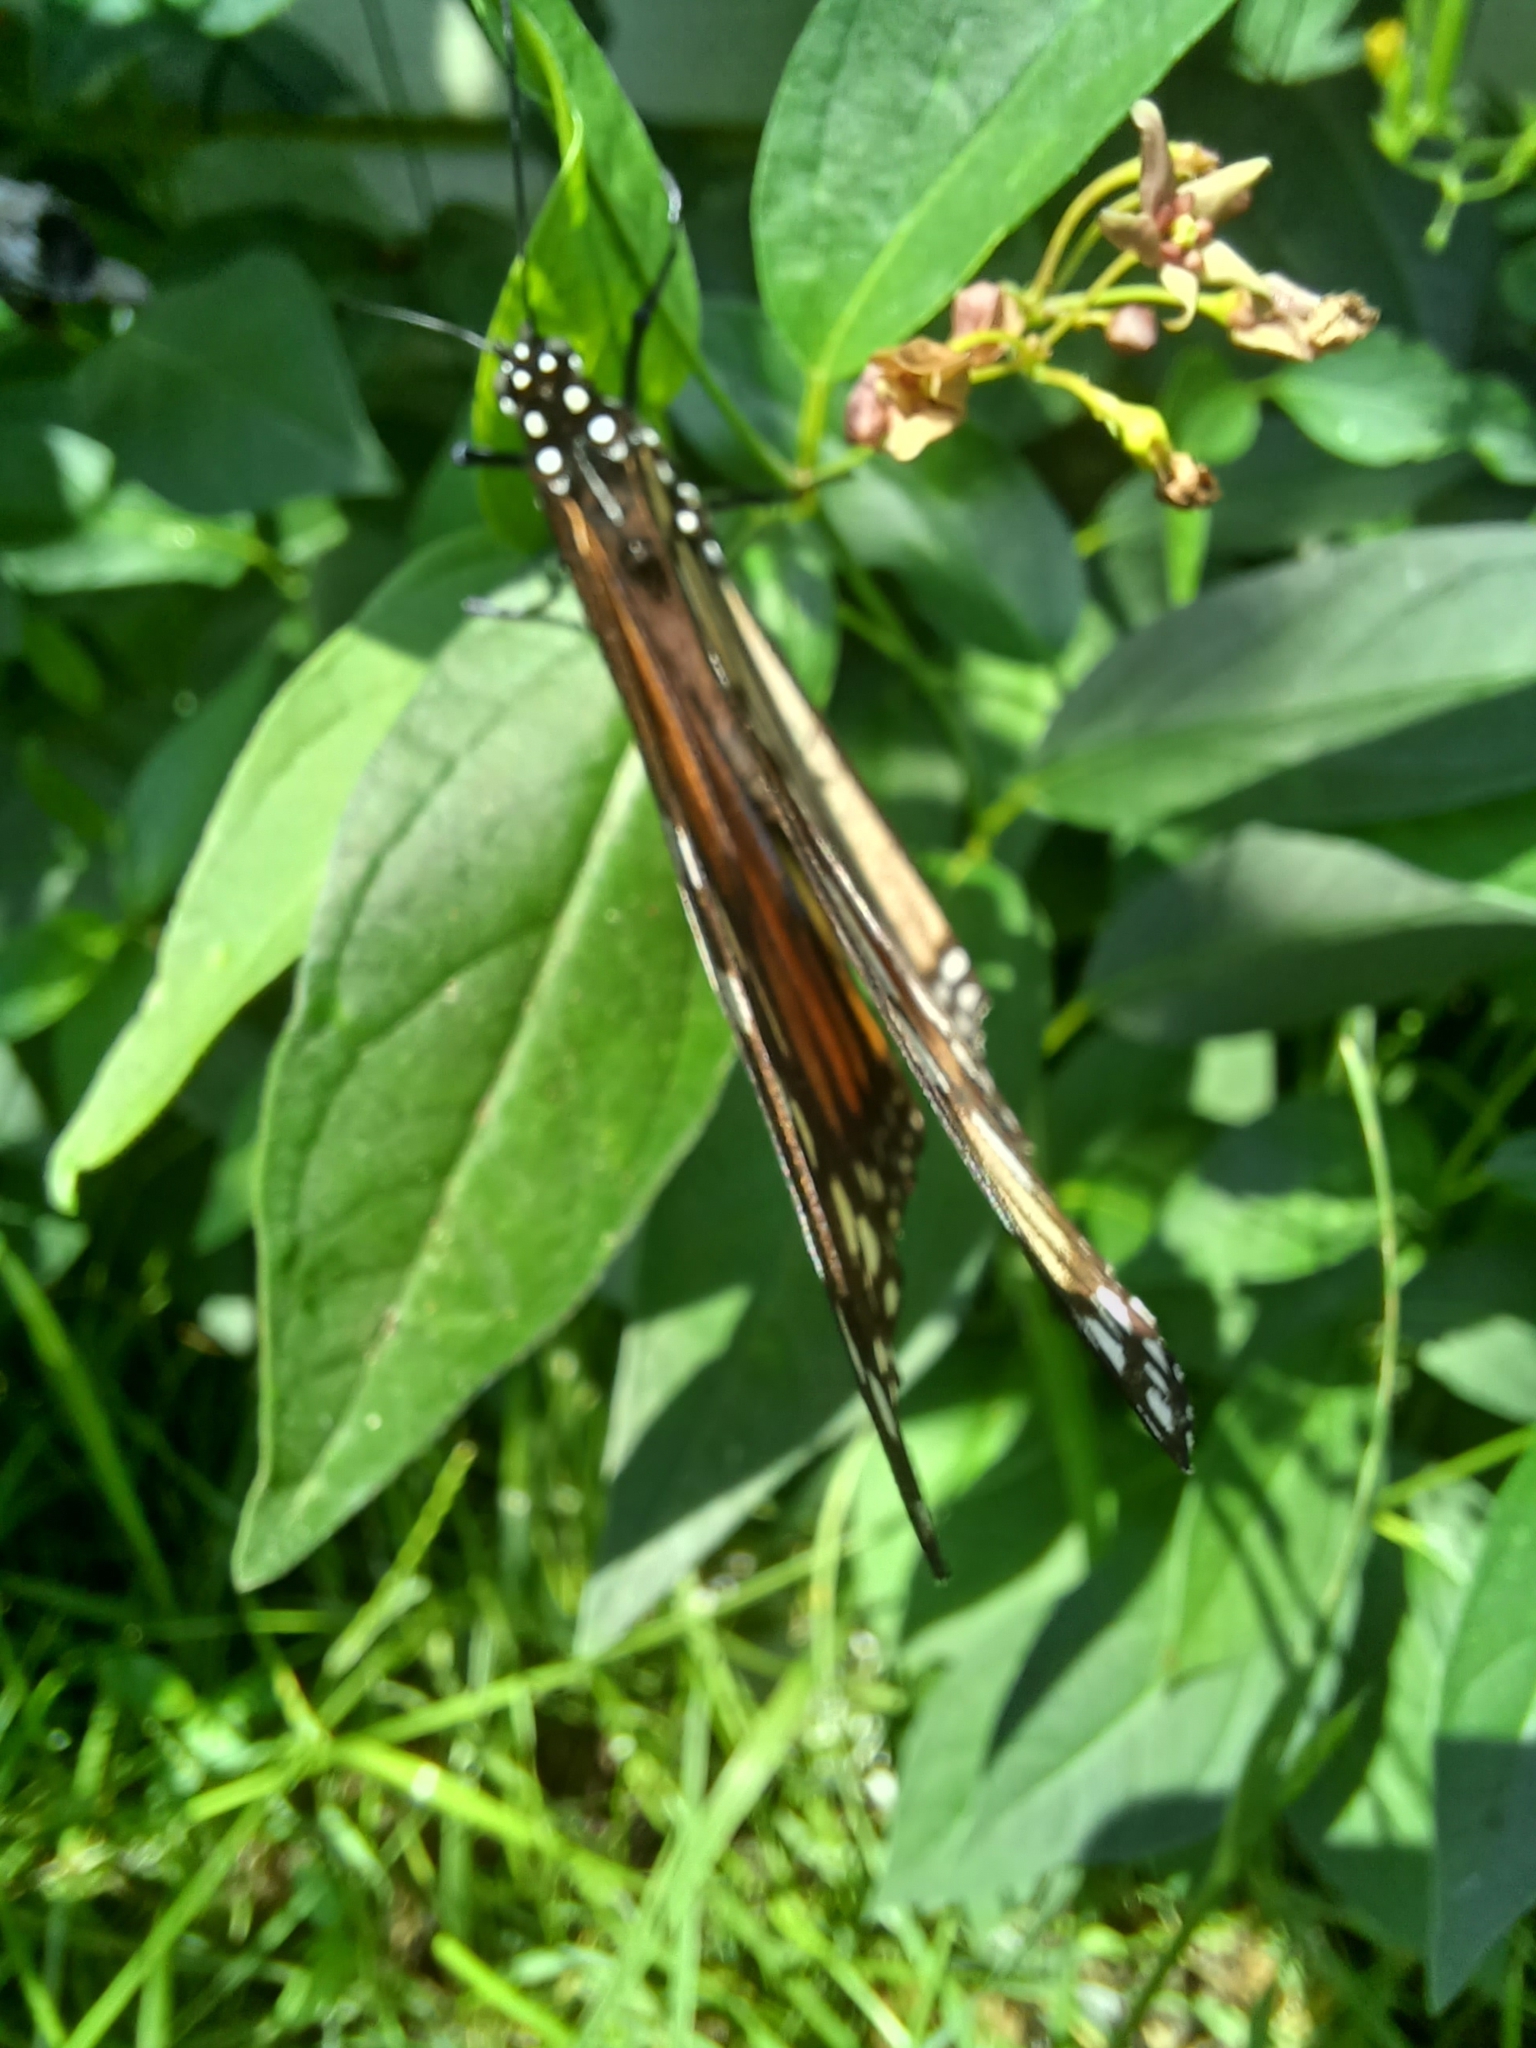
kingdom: Animalia
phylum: Arthropoda
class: Insecta
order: Lepidoptera
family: Nymphalidae
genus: Danaus
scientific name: Danaus plexippus
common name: Monarch
